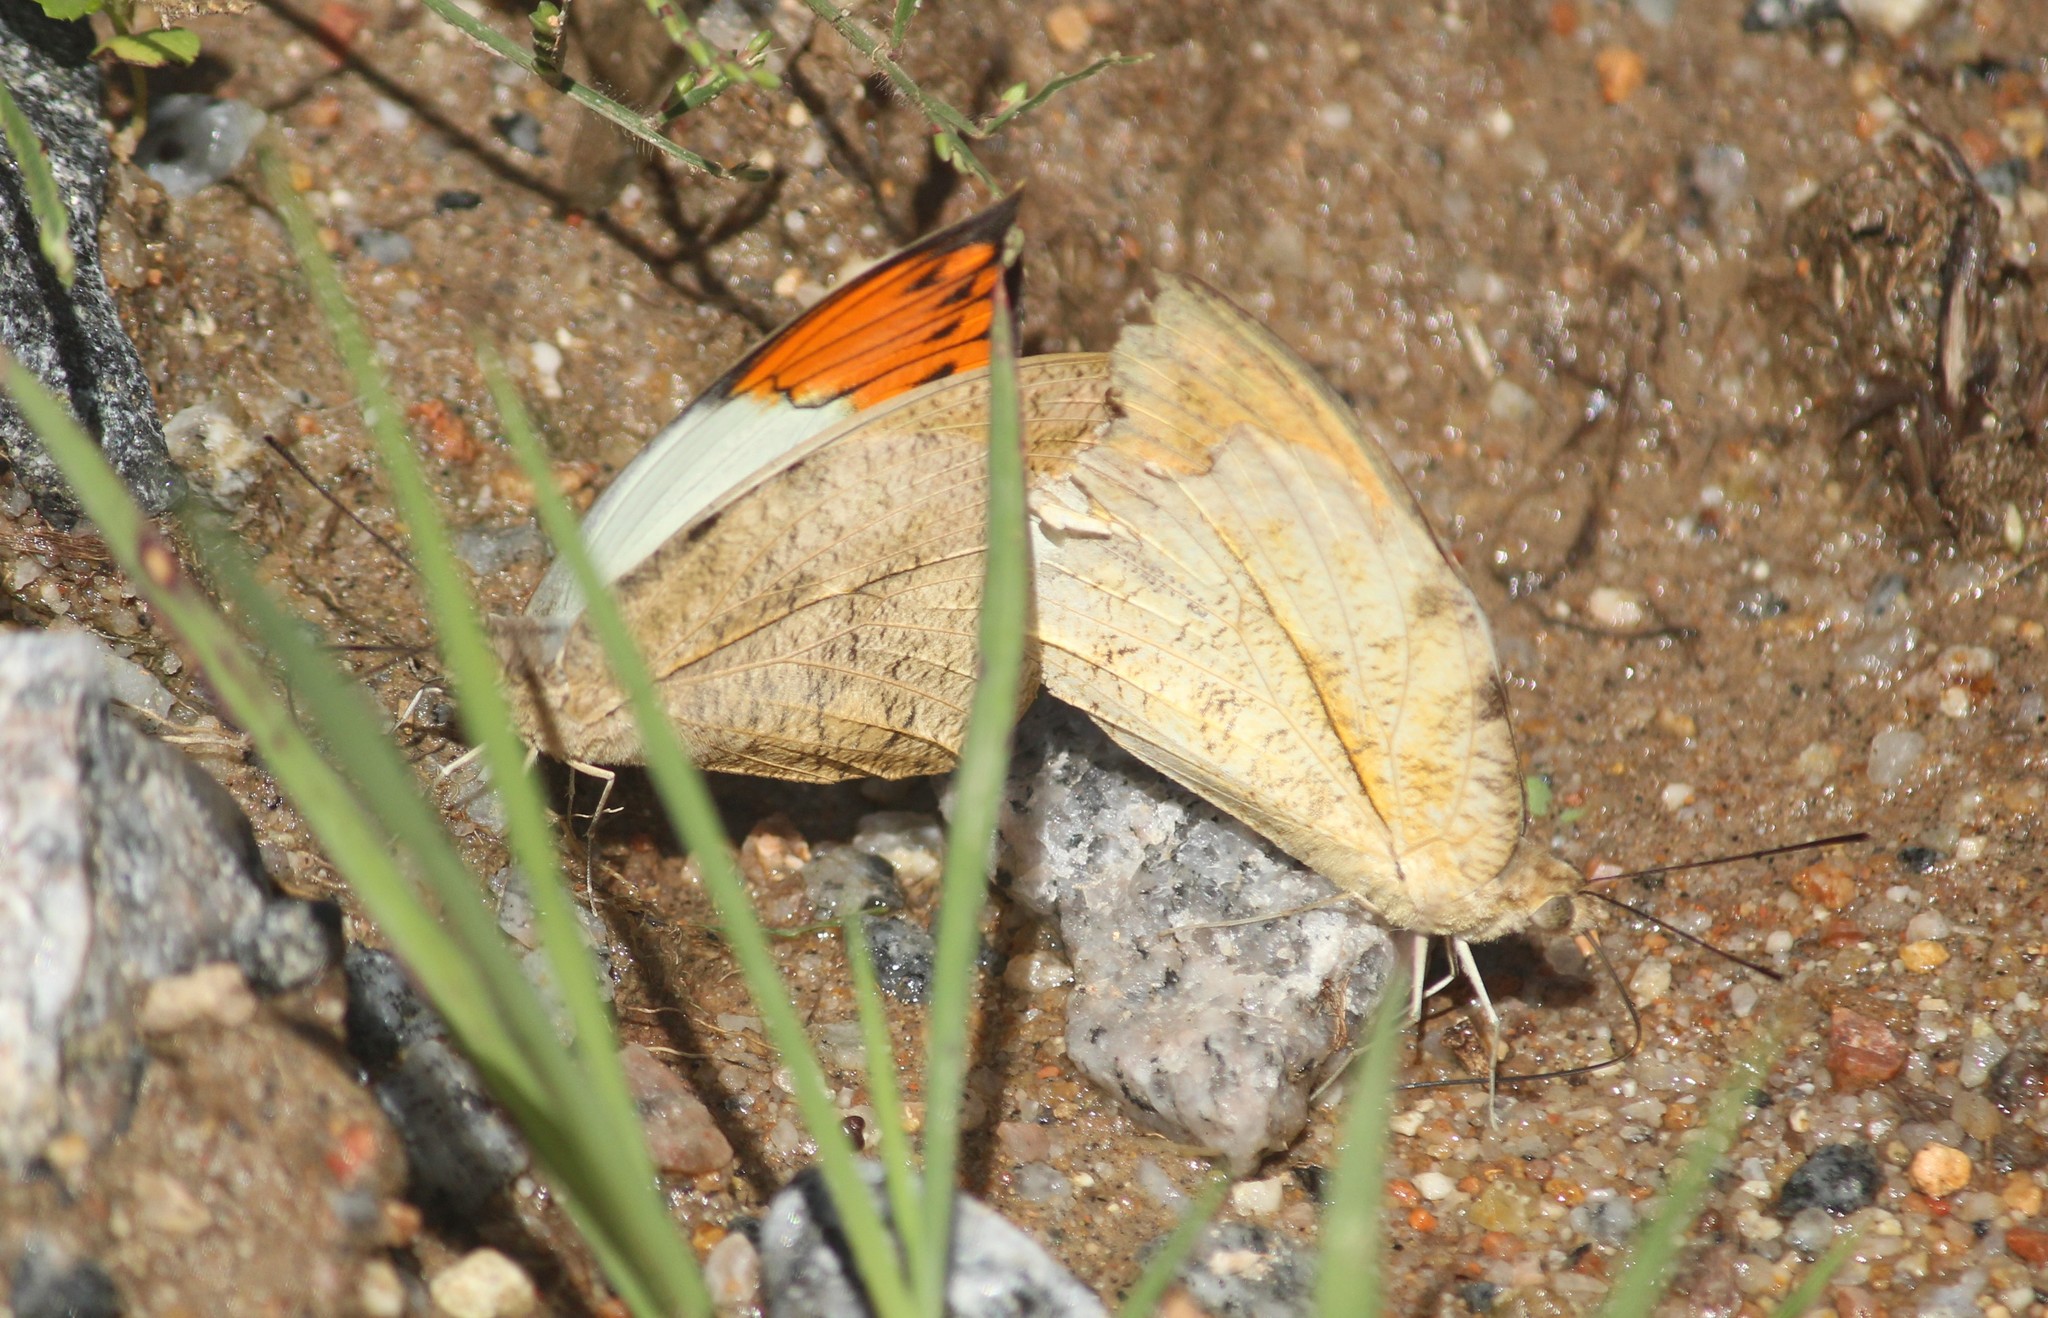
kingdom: Animalia
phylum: Arthropoda
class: Insecta
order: Lepidoptera
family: Pieridae
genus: Hebomoia
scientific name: Hebomoia glaucippe
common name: Great orange tip
